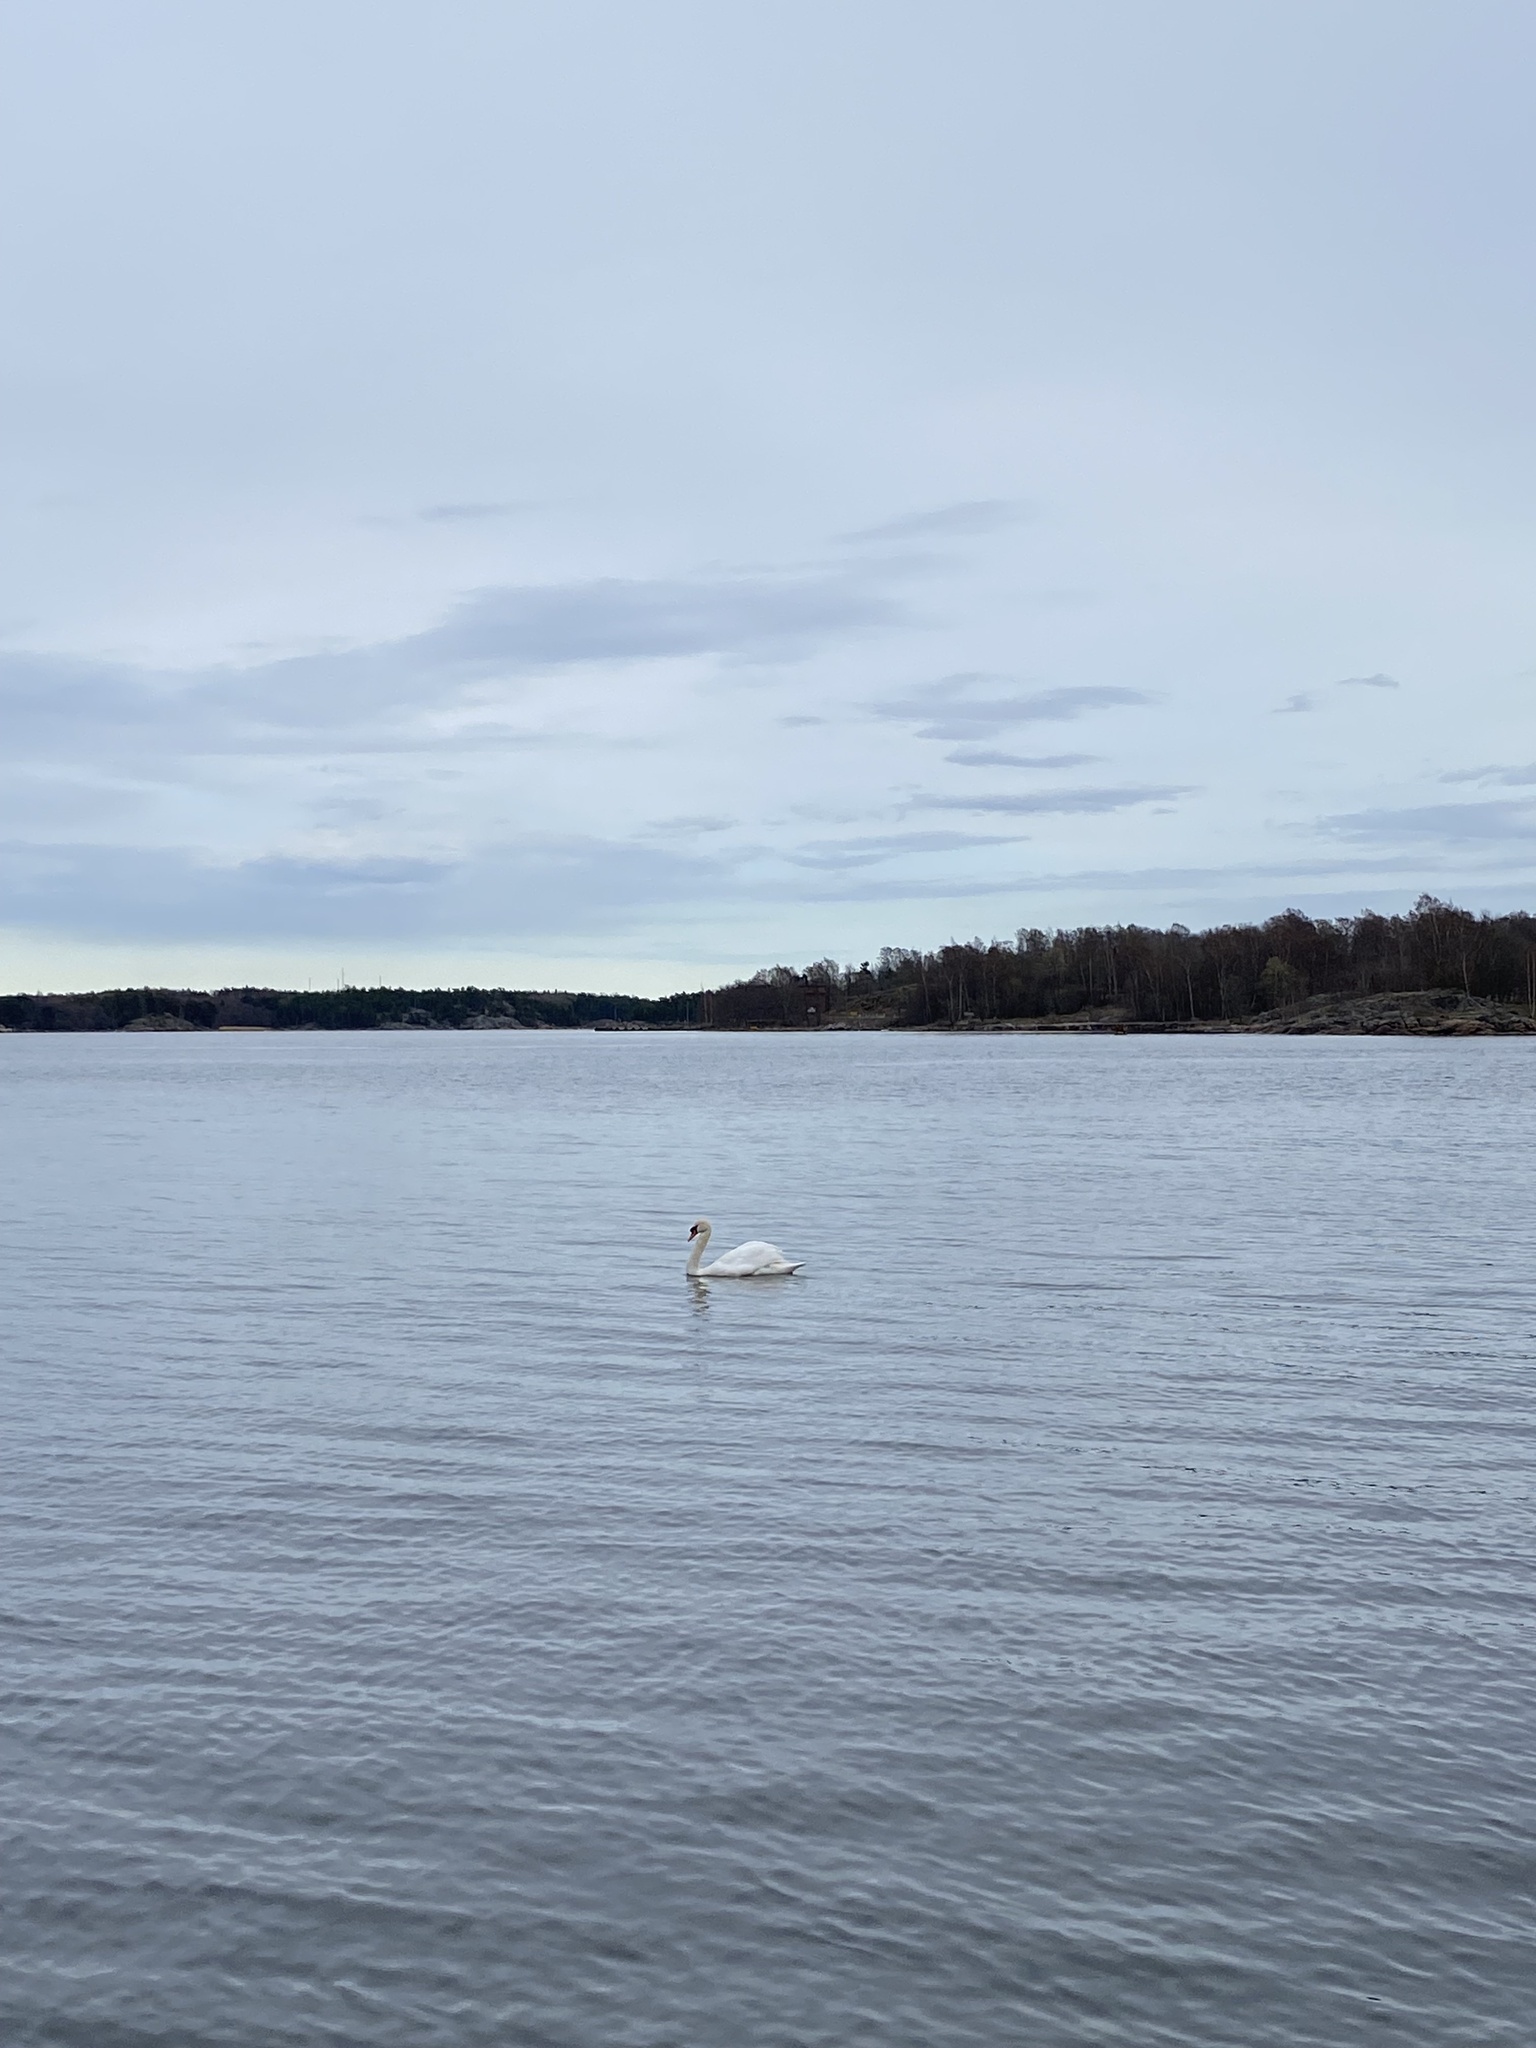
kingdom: Animalia
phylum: Chordata
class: Aves
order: Anseriformes
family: Anatidae
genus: Cygnus
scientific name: Cygnus olor
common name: Mute swan
